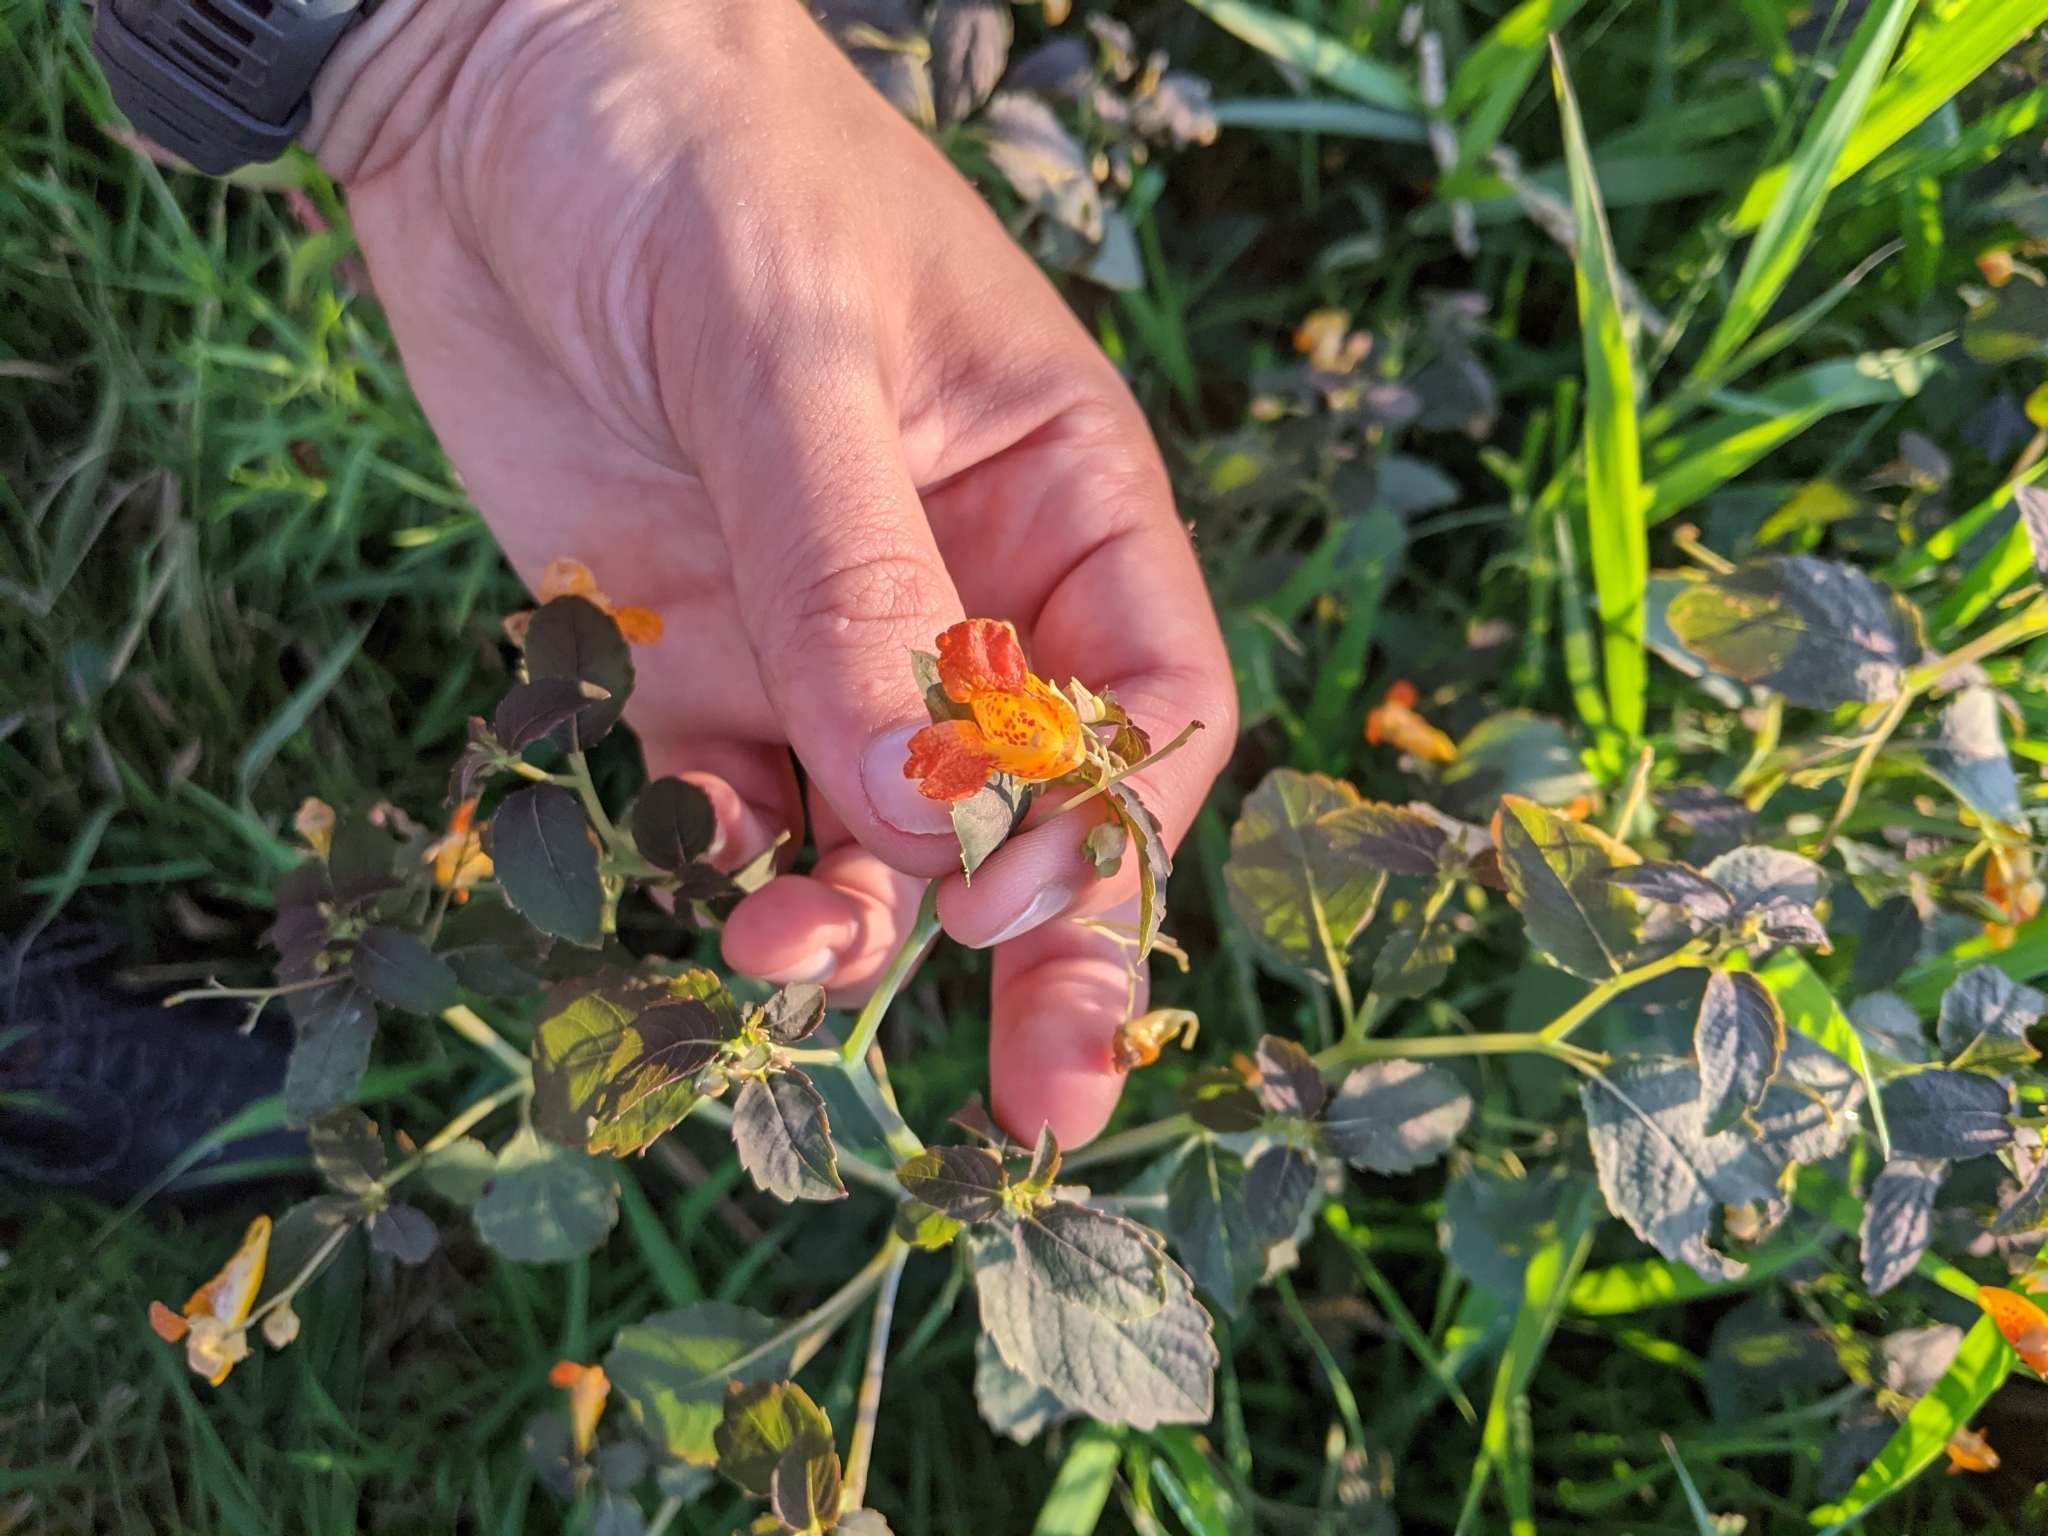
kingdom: Plantae
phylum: Tracheophyta
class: Magnoliopsida
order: Ericales
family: Balsaminaceae
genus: Impatiens
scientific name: Impatiens capensis
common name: Orange balsam
